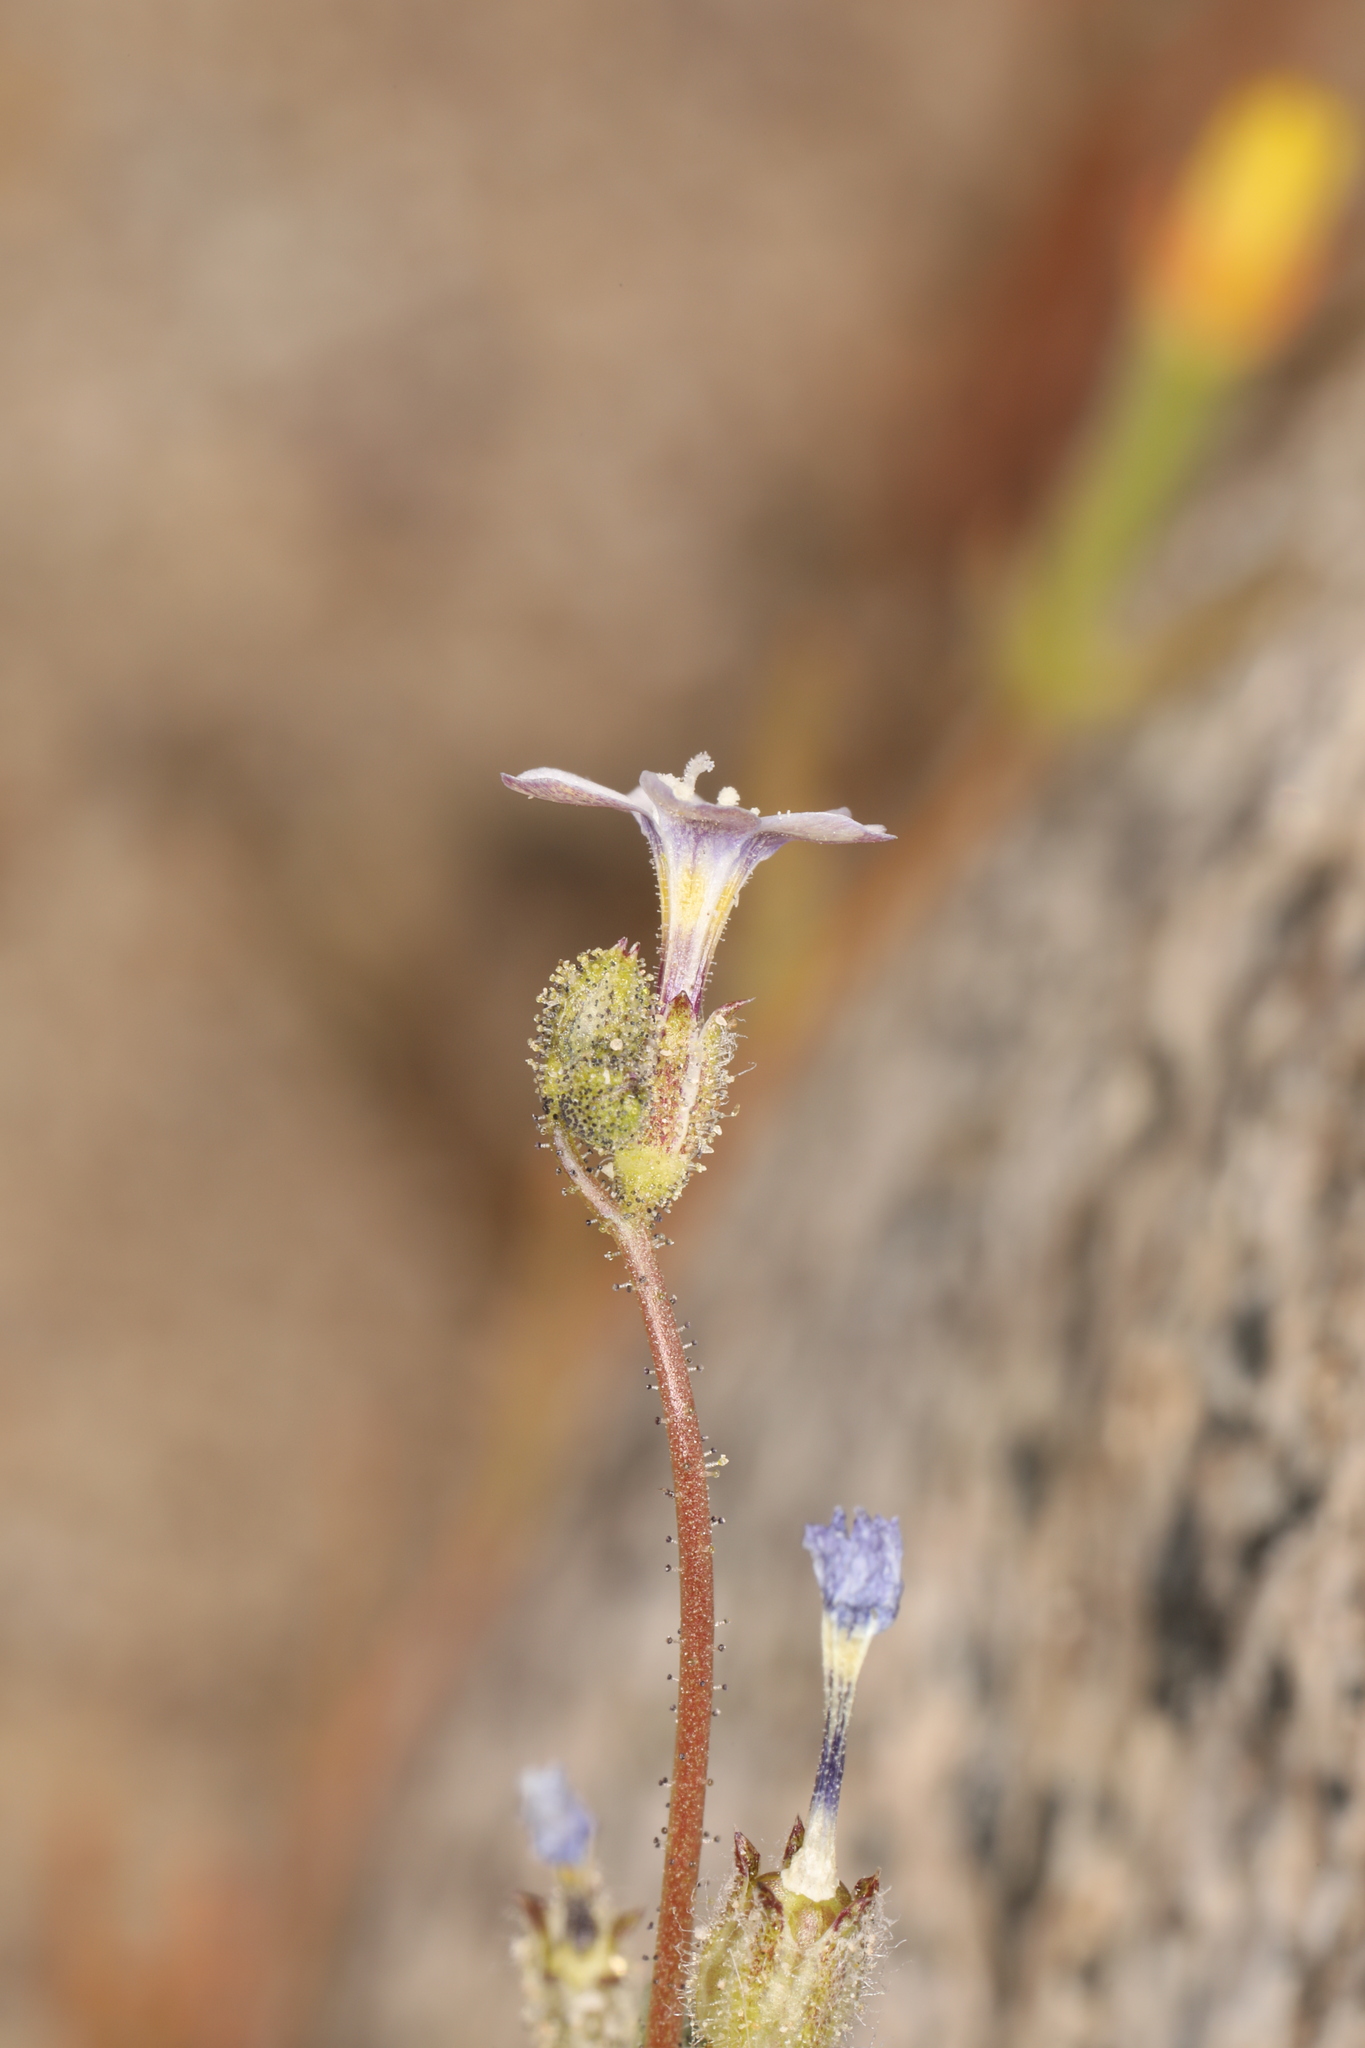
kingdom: Plantae
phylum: Tracheophyta
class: Magnoliopsida
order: Ericales
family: Polemoniaceae
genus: Gilia
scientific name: Gilia sinuata
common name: Rosy gilia
